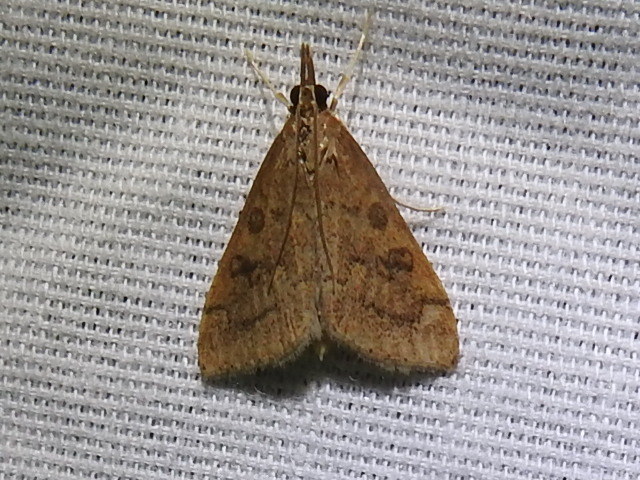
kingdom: Animalia
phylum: Arthropoda
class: Insecta
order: Lepidoptera
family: Crambidae
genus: Udea
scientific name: Udea rubigalis
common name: Celery leaftier moth
